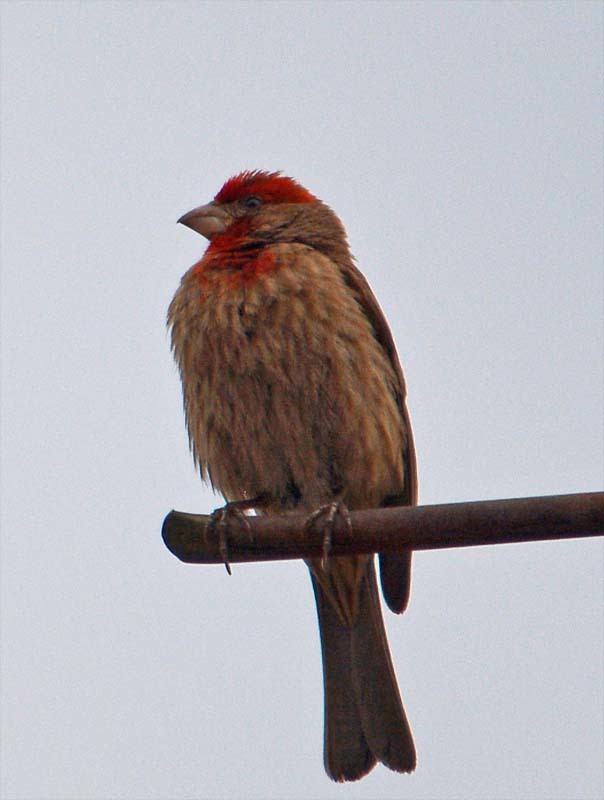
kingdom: Animalia
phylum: Chordata
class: Aves
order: Passeriformes
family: Fringillidae
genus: Haemorhous
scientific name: Haemorhous mexicanus
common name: House finch
